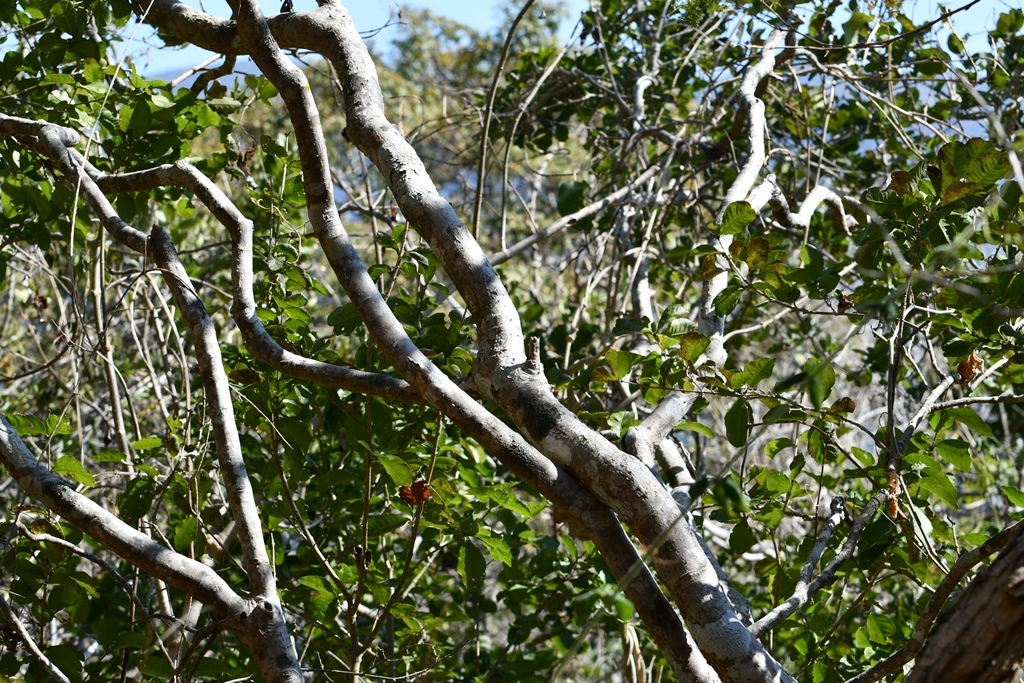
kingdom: Plantae
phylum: Tracheophyta
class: Magnoliopsida
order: Lamiales
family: Verbenaceae
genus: Petrea
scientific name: Petrea asperifolia
